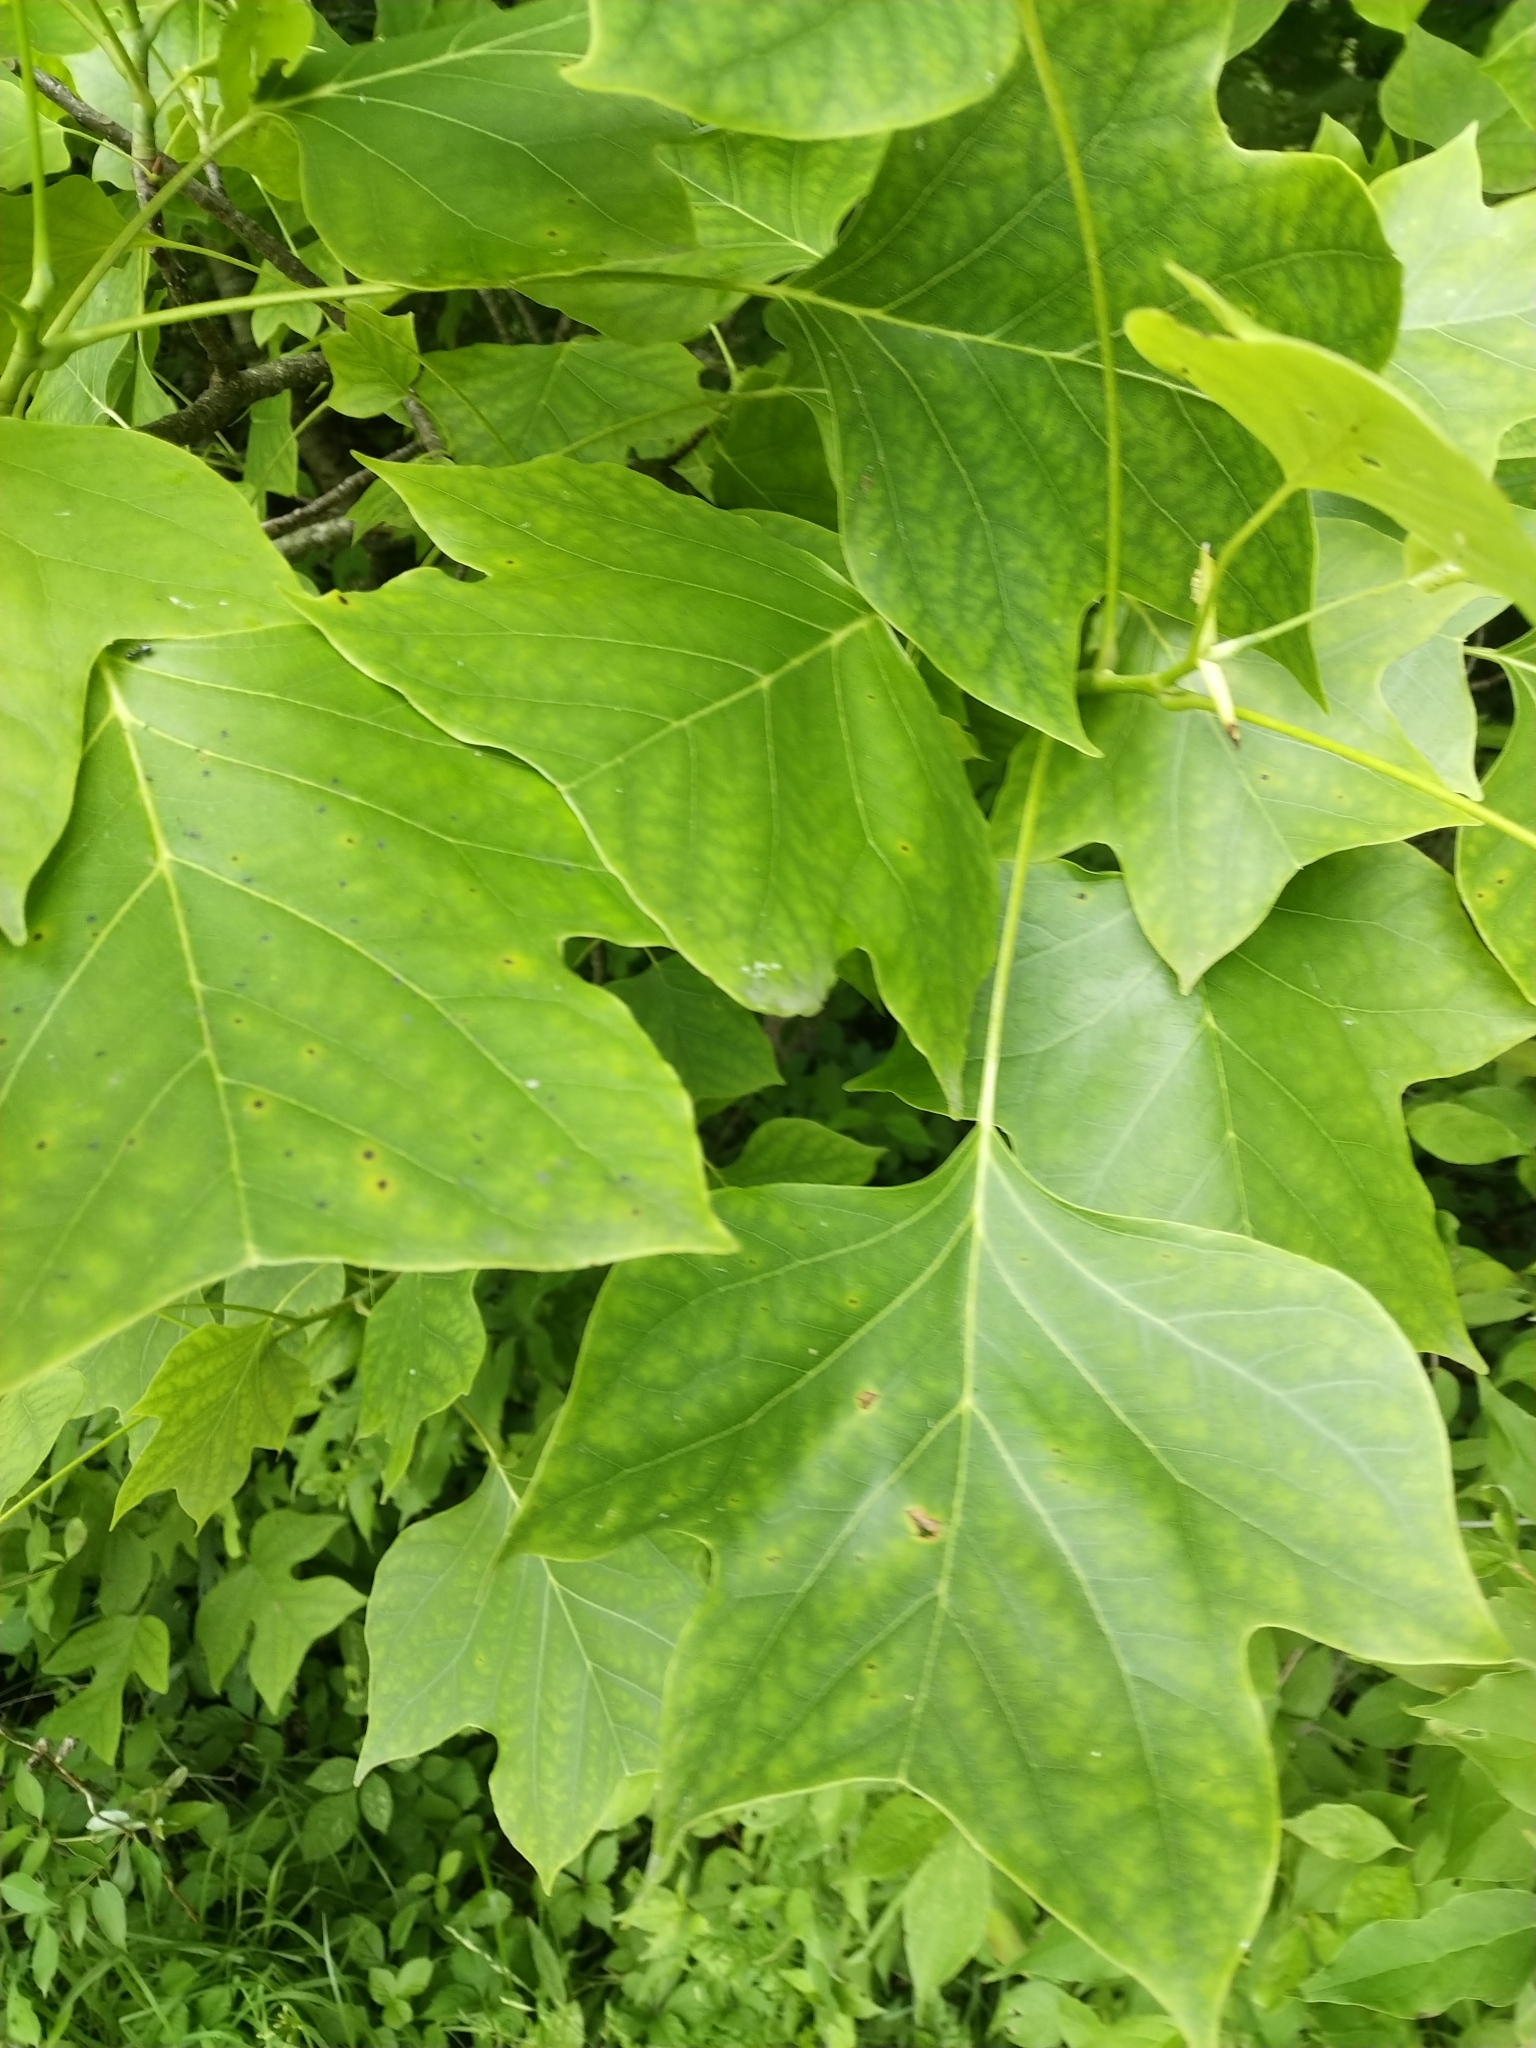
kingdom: Plantae
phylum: Tracheophyta
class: Magnoliopsida
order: Magnoliales
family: Magnoliaceae
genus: Liriodendron
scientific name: Liriodendron tulipifera
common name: Tulip tree
